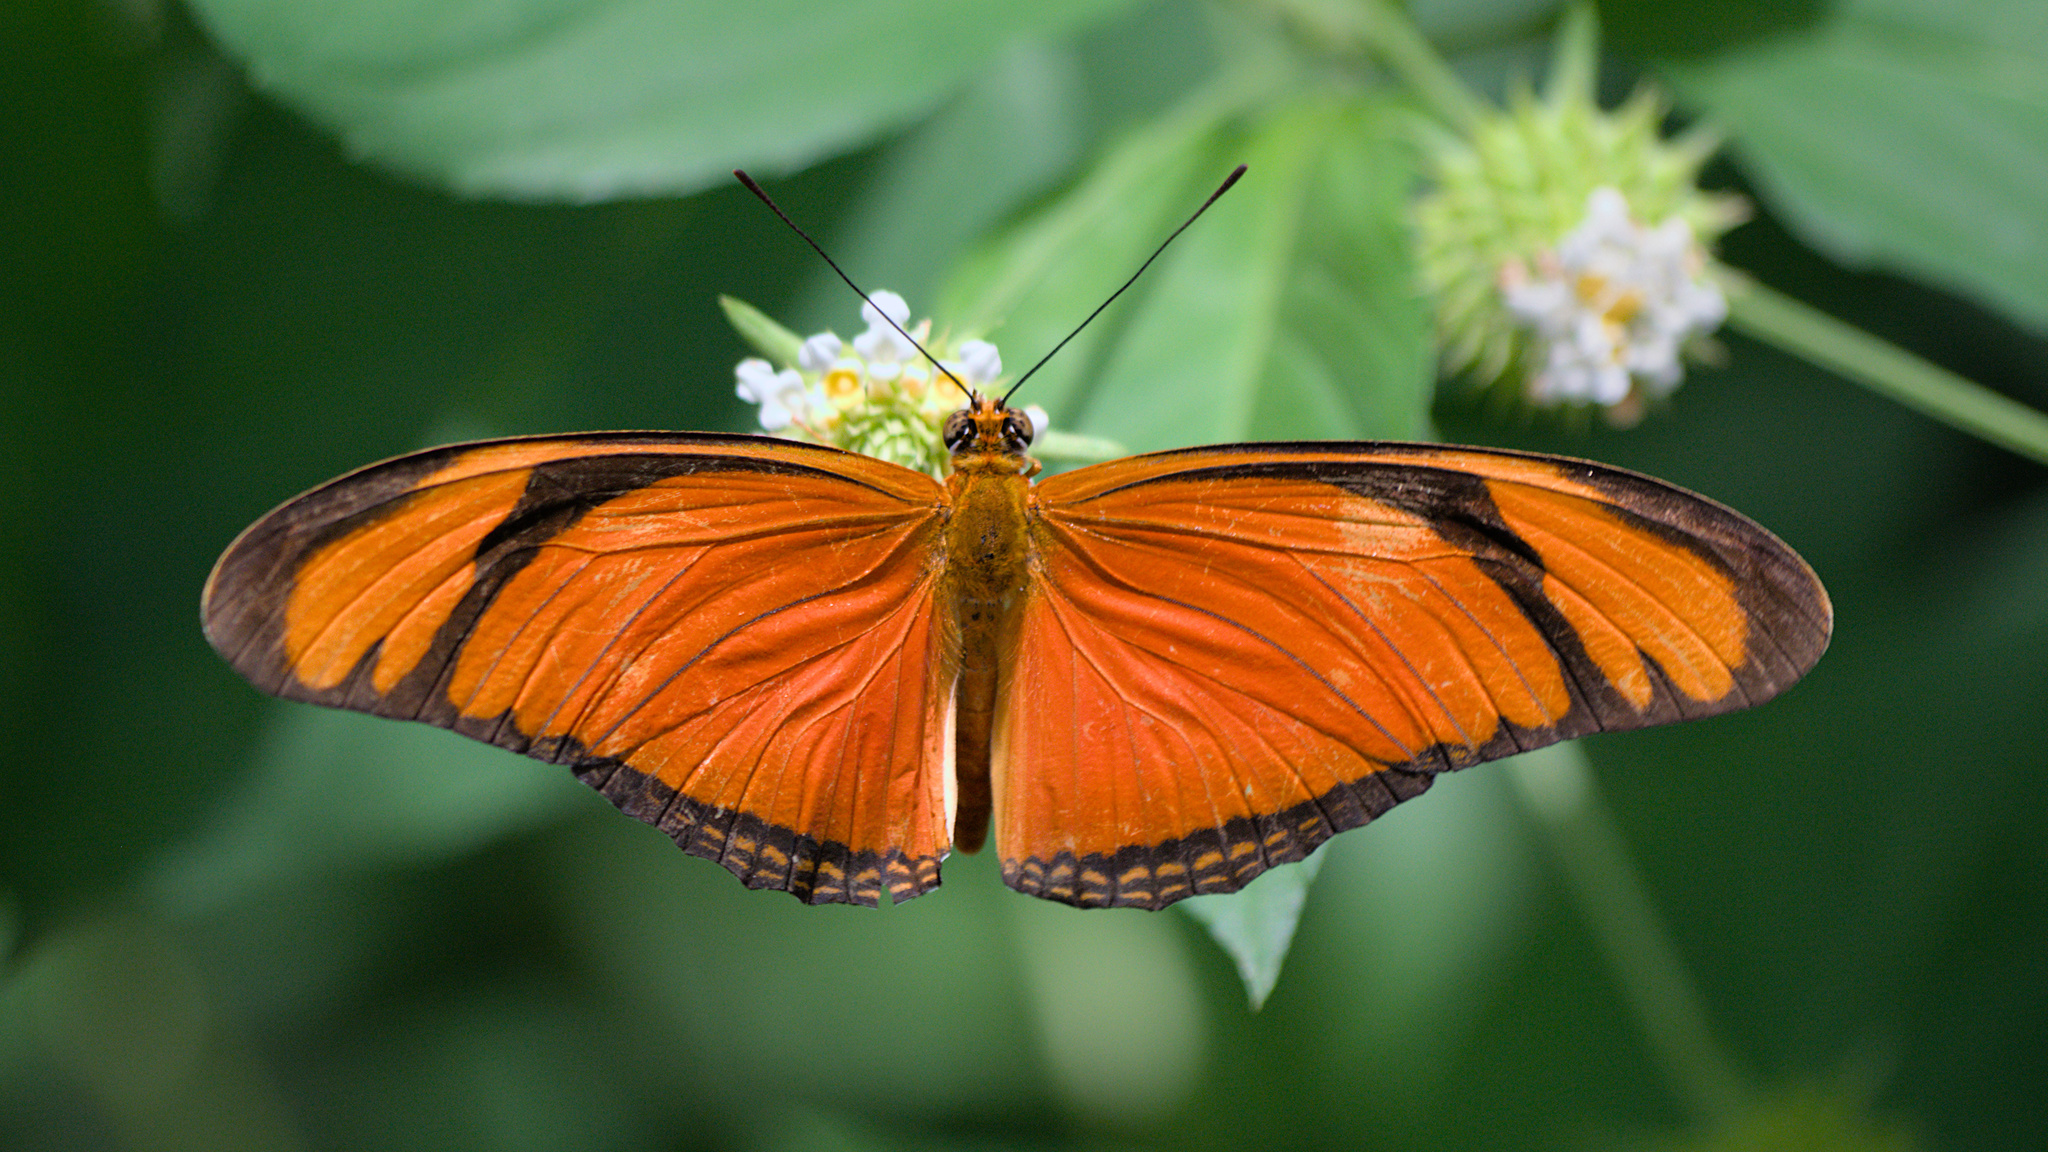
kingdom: Animalia
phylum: Arthropoda
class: Insecta
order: Lepidoptera
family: Nymphalidae
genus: Dryas
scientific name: Dryas iulia
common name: Flambeau
